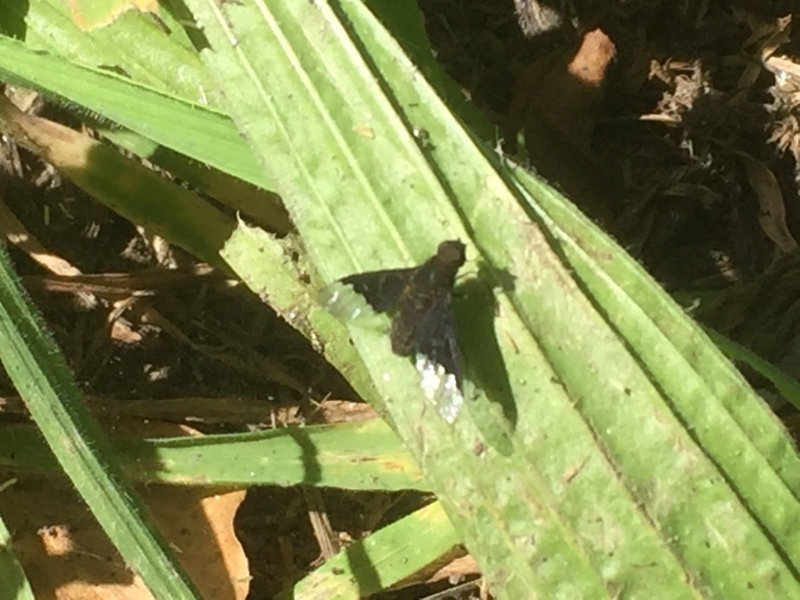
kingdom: Animalia
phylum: Arthropoda
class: Insecta
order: Diptera
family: Bombyliidae
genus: Hemipenthes
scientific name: Hemipenthes morio
